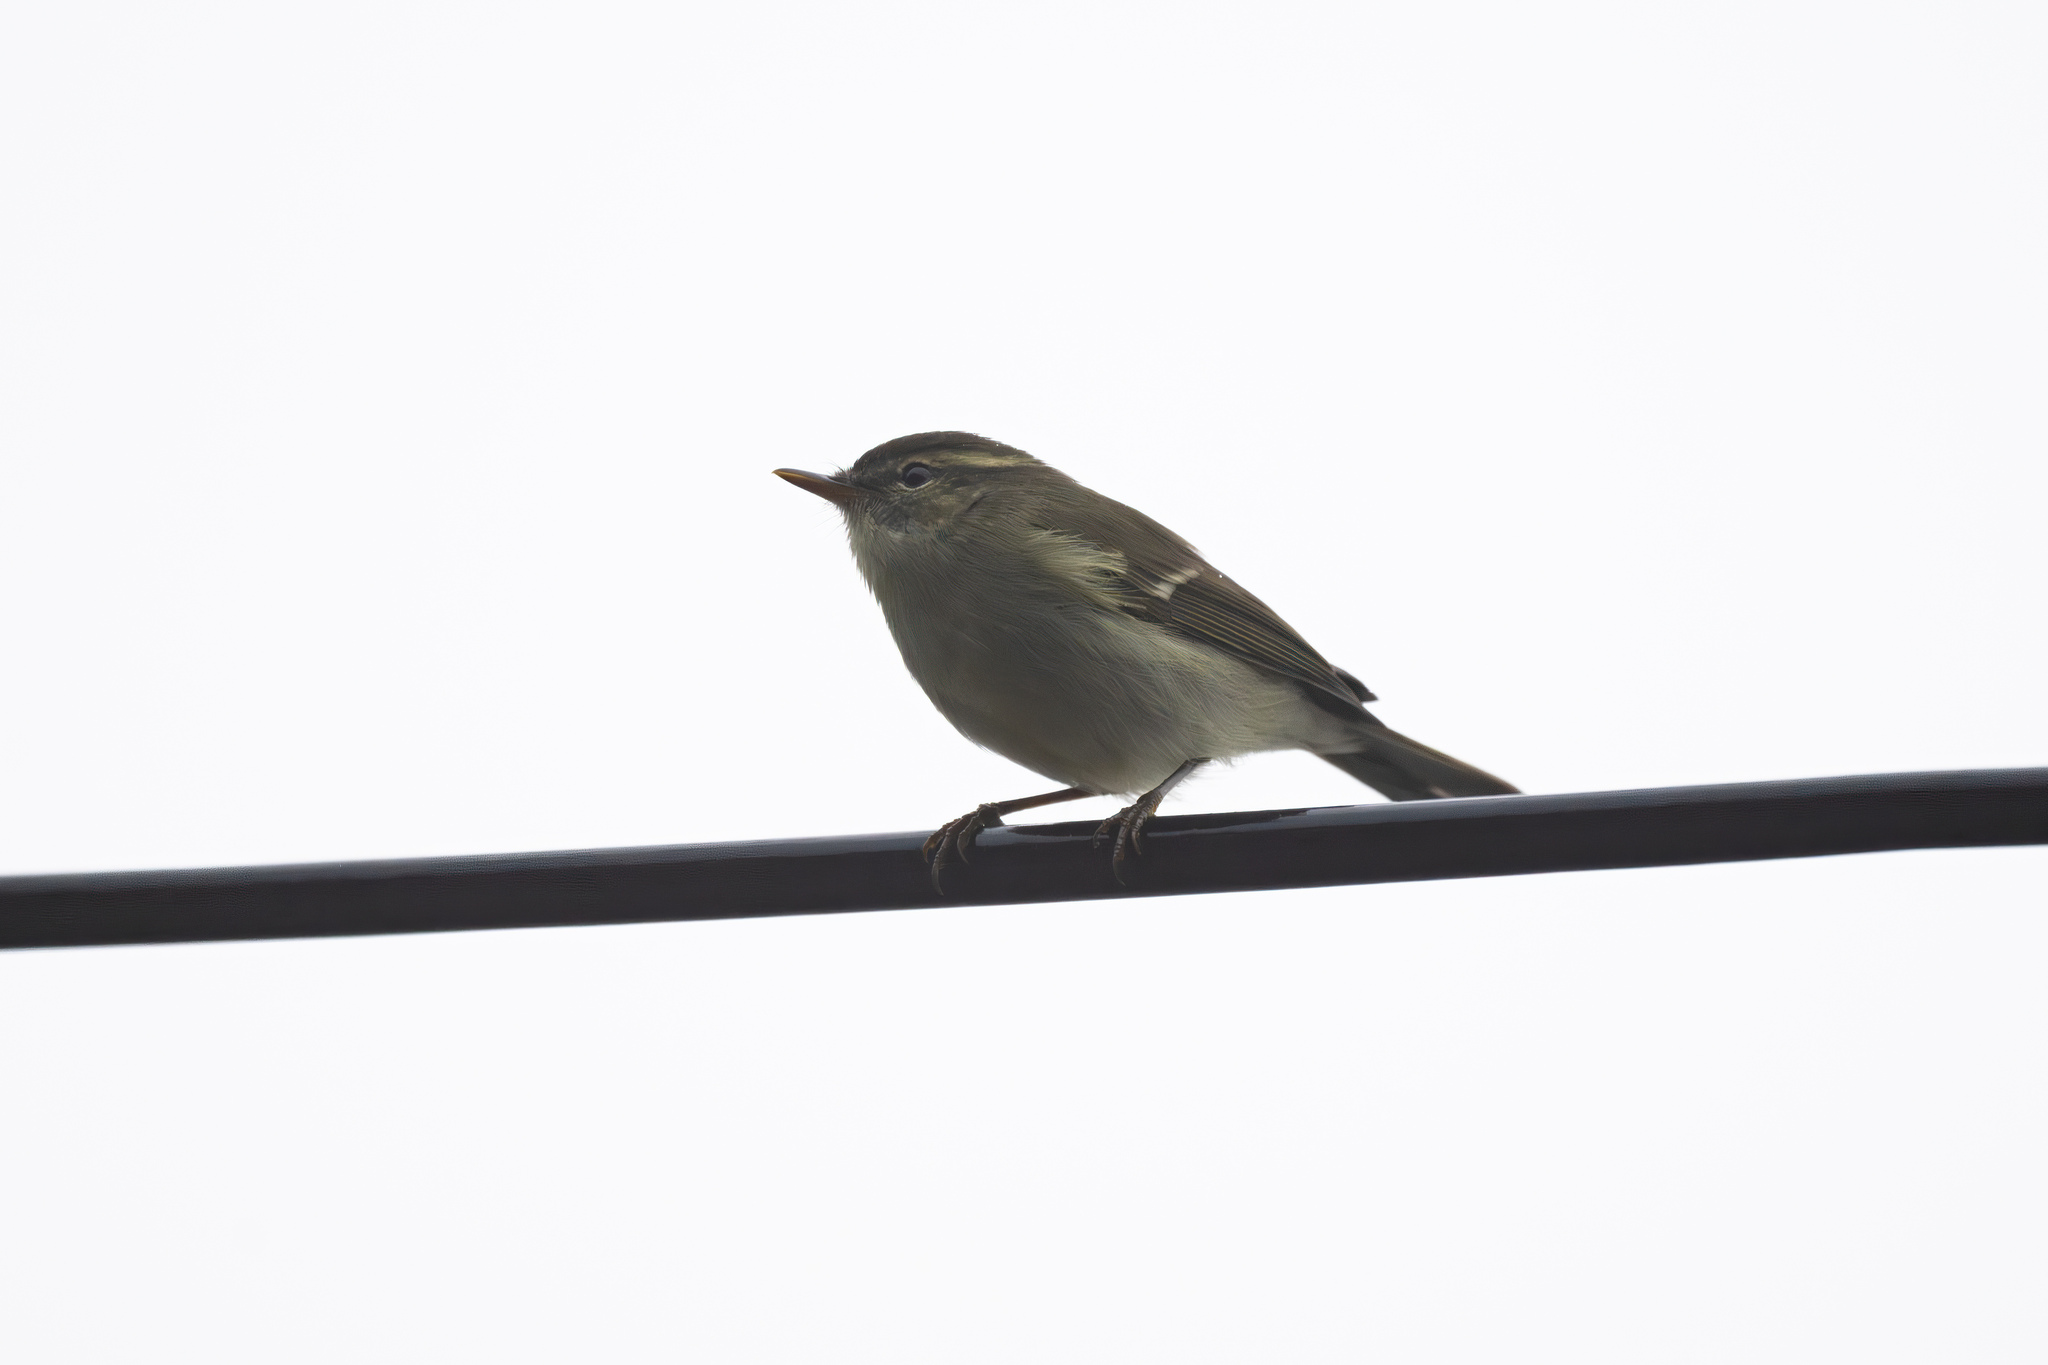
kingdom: Animalia
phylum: Chordata
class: Aves
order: Passeriformes
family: Phylloscopidae
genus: Phylloscopus
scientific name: Phylloscopus trochiloides
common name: Greenish warbler
